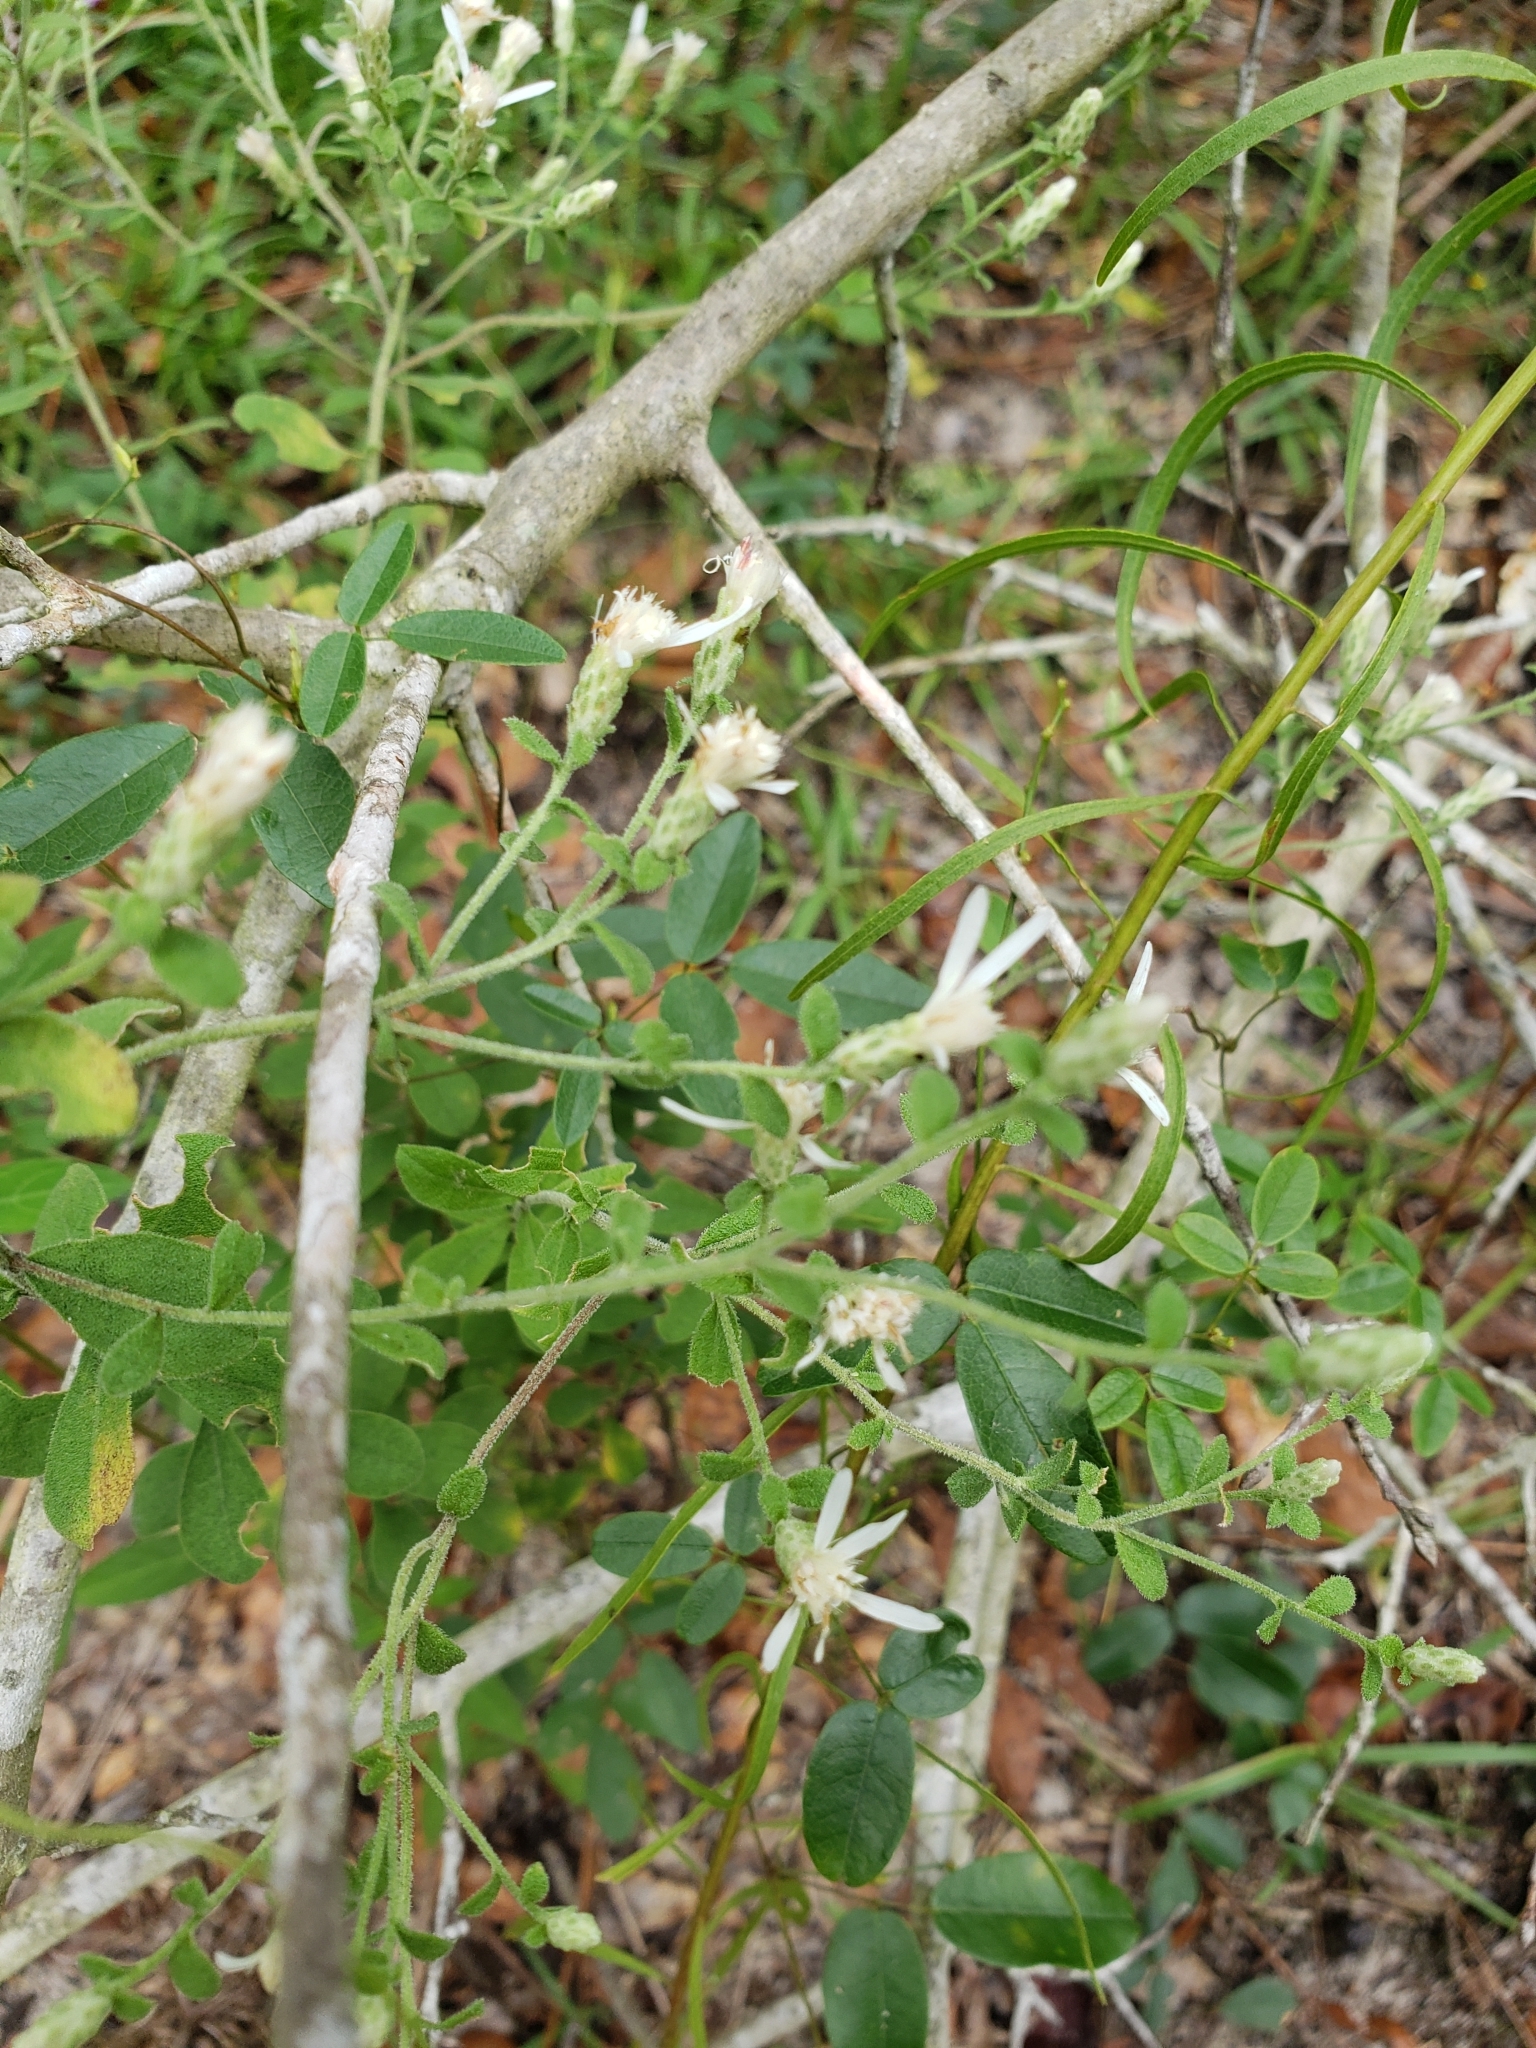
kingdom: Plantae
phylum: Tracheophyta
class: Magnoliopsida
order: Asterales
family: Asteraceae
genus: Sericocarpus
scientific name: Sericocarpus tortifolius
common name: Dixie aster
